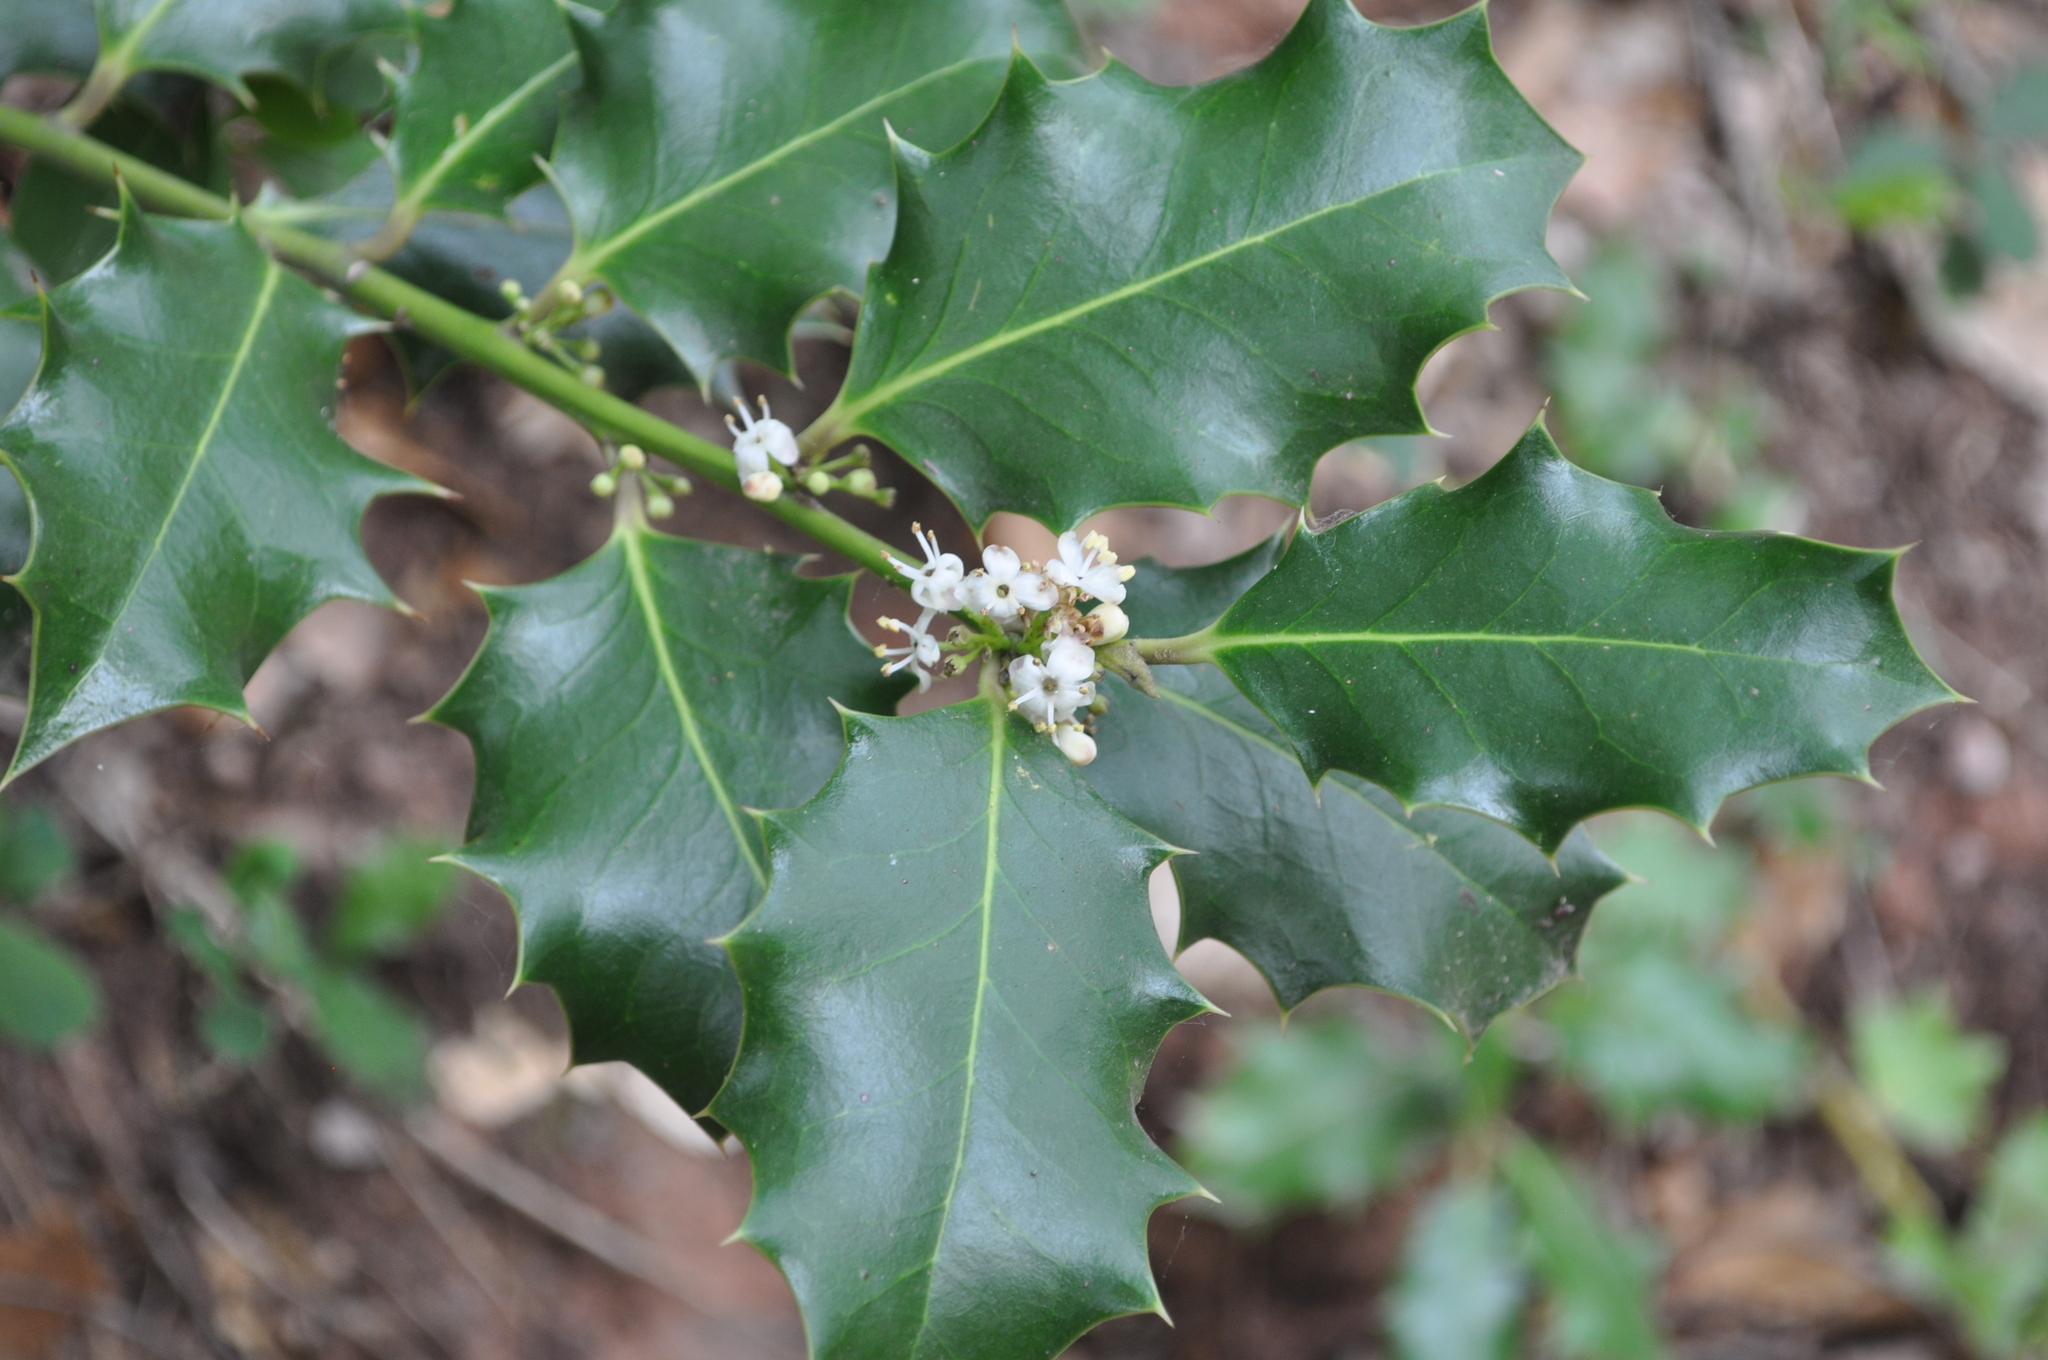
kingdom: Plantae
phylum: Tracheophyta
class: Magnoliopsida
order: Aquifoliales
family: Aquifoliaceae
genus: Ilex
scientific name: Ilex aquifolium
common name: English holly
